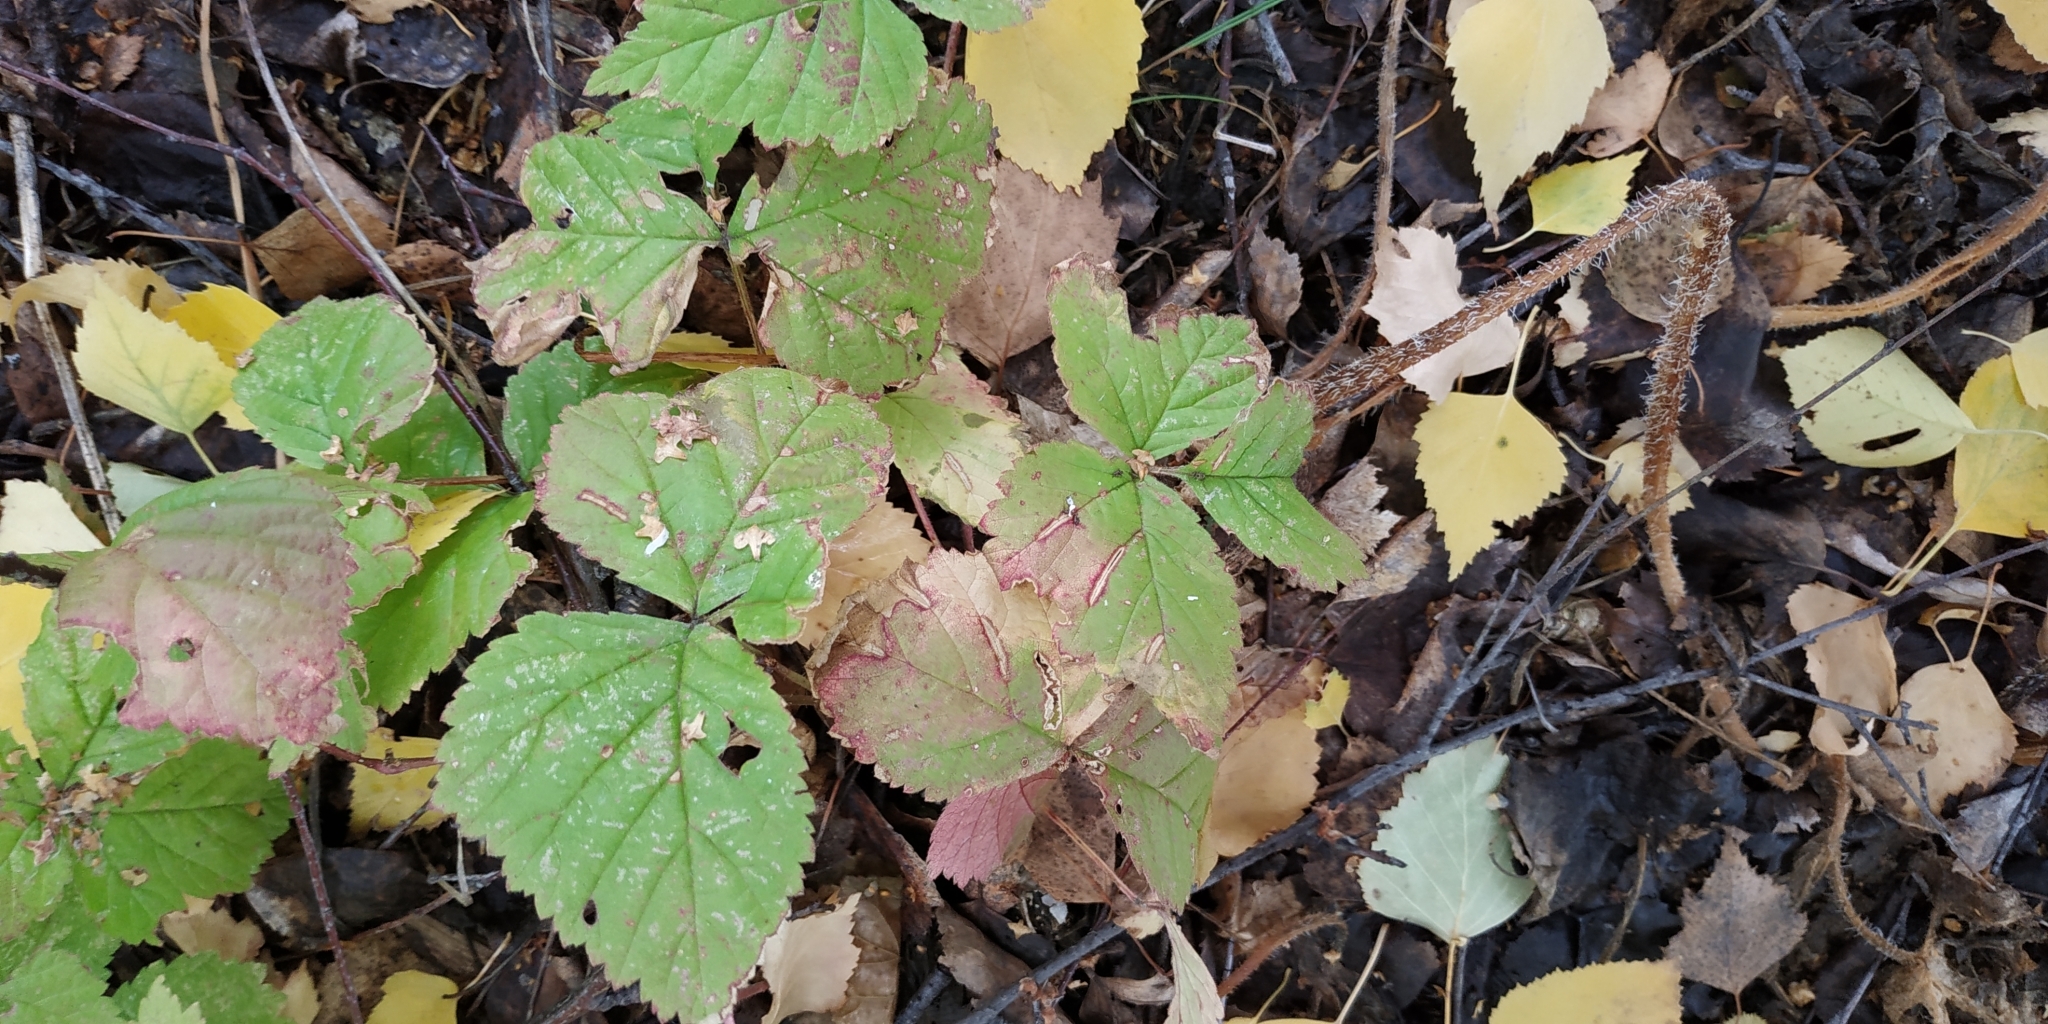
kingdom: Plantae
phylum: Tracheophyta
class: Magnoliopsida
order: Rosales
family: Rosaceae
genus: Rubus
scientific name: Rubus saxatilis
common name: Stone bramble
